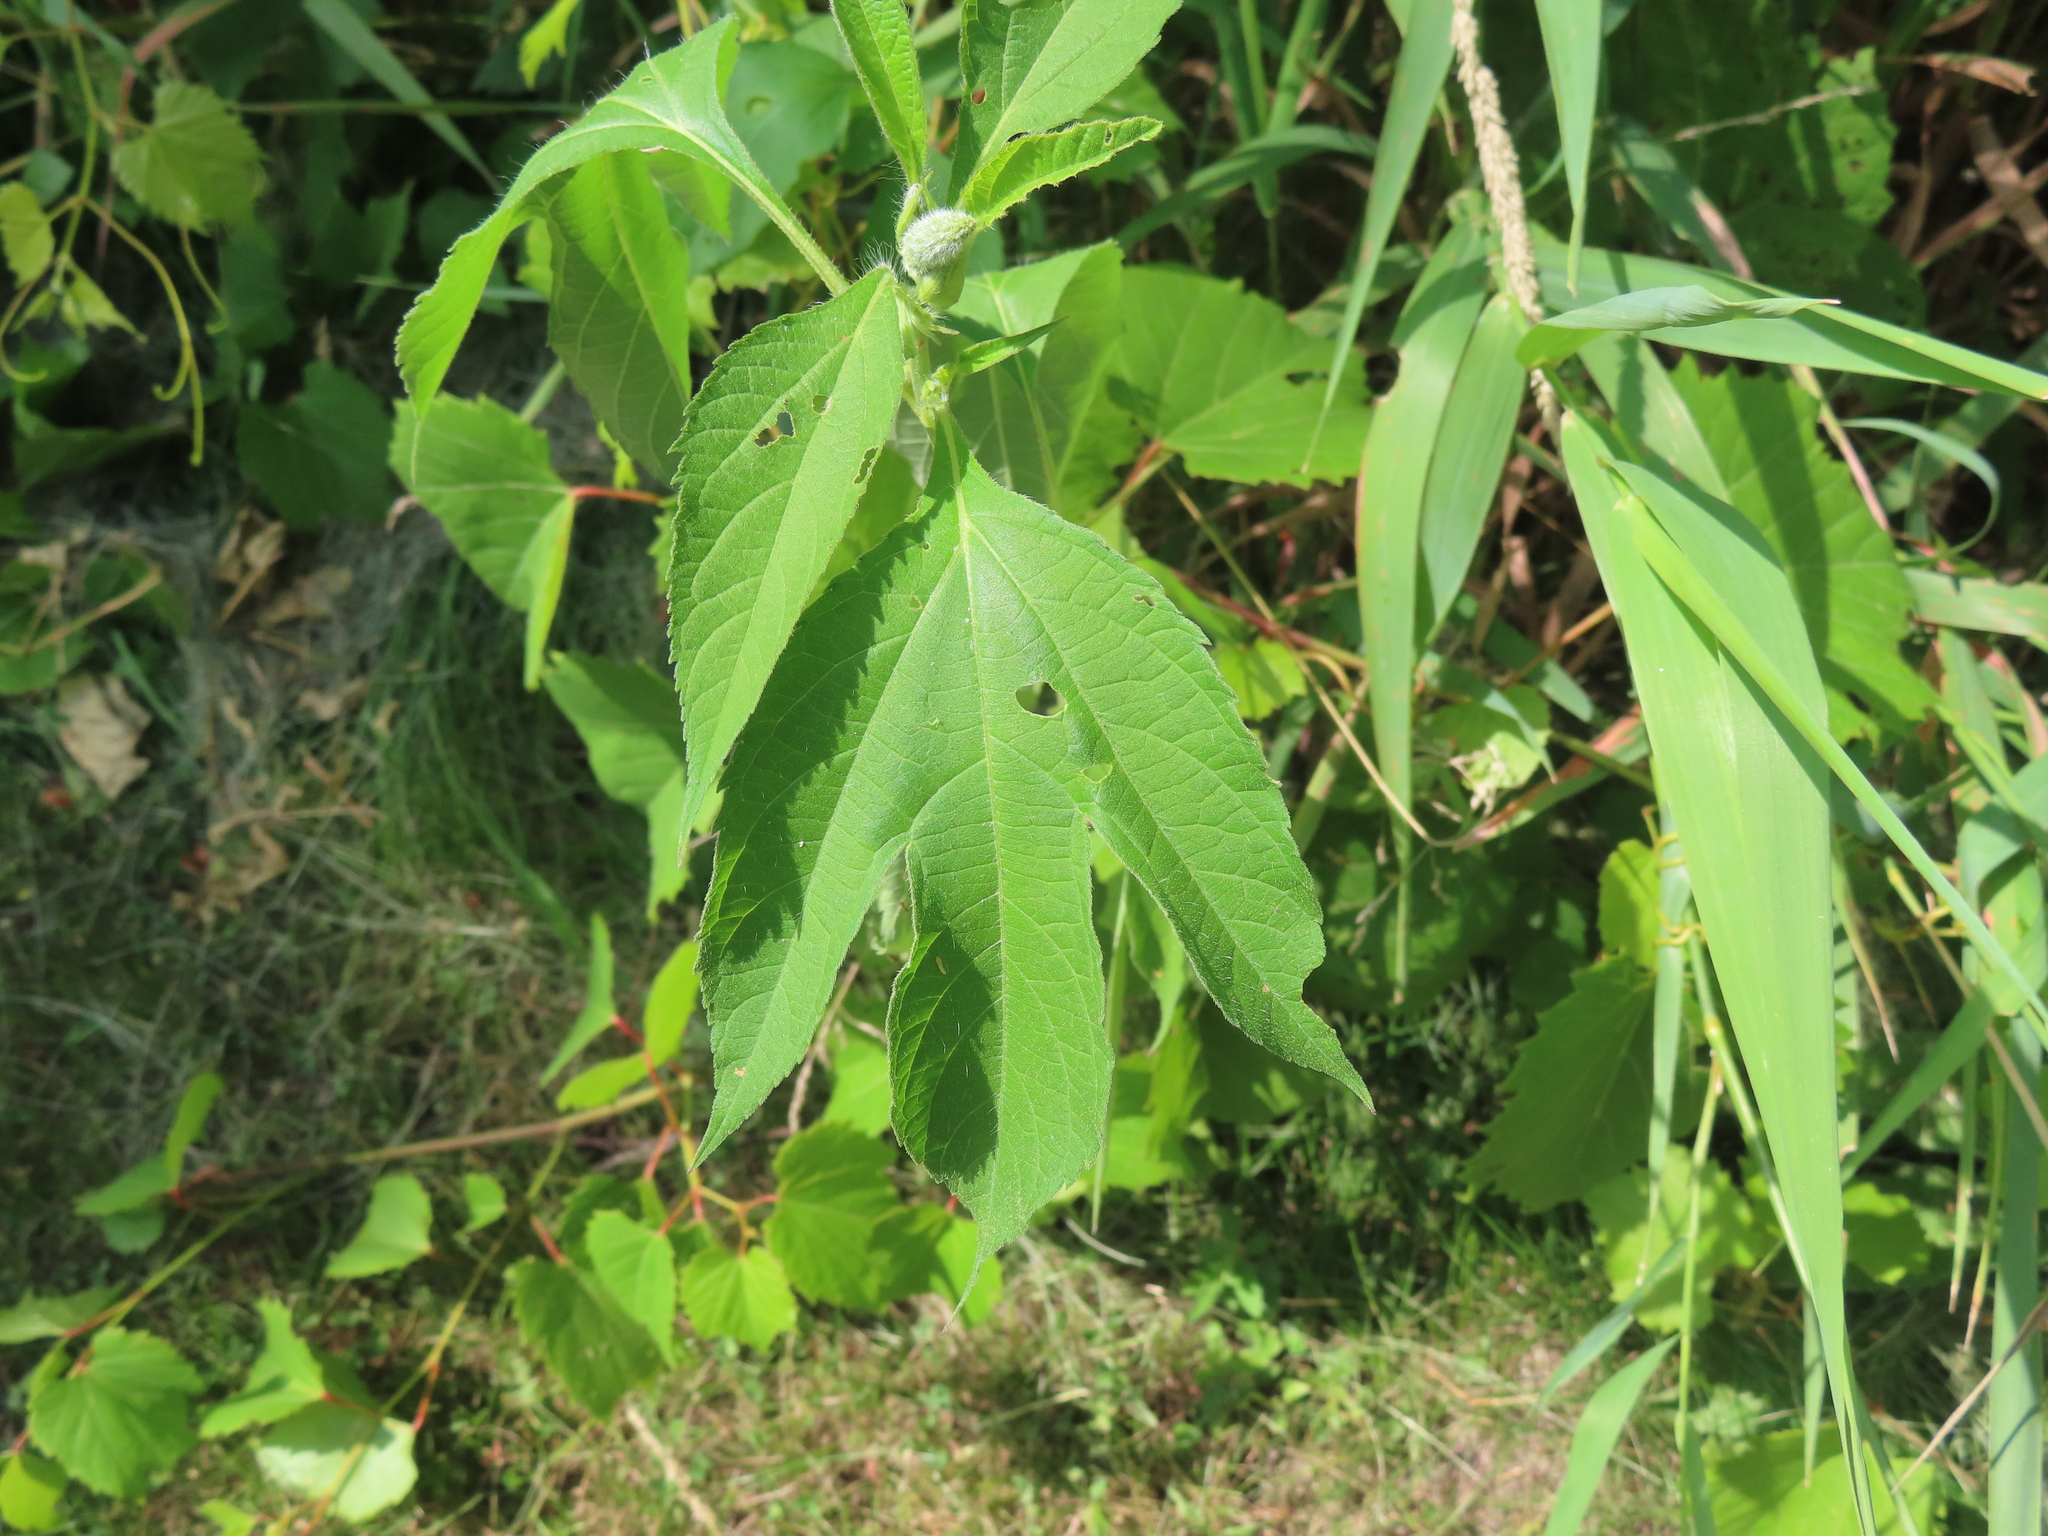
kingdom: Plantae
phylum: Tracheophyta
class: Magnoliopsida
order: Asterales
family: Asteraceae
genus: Ambrosia
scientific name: Ambrosia trifida
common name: Giant ragweed
